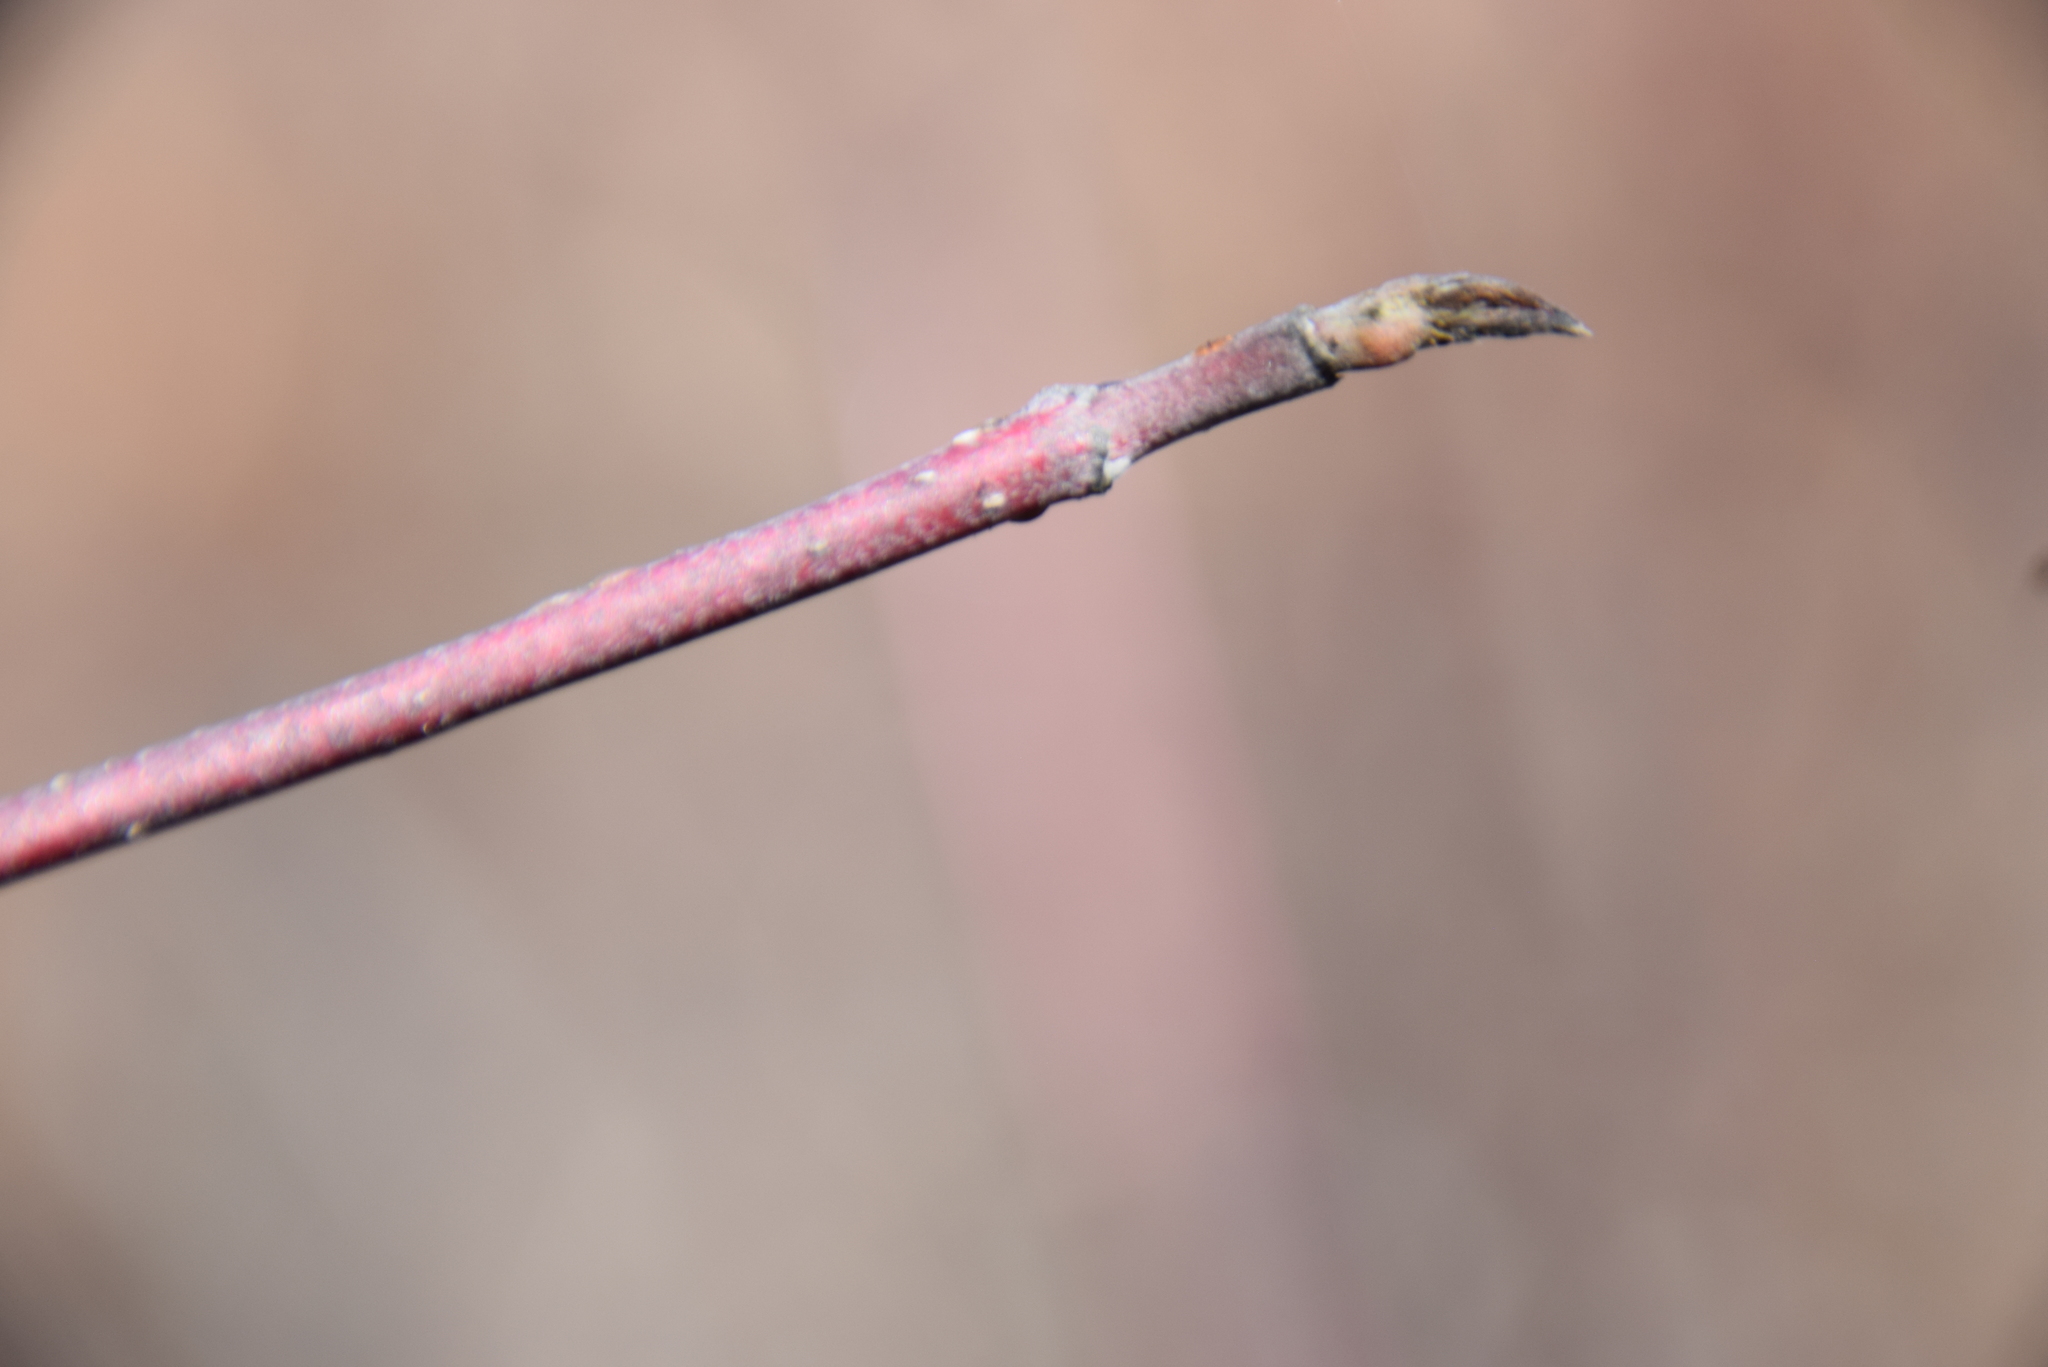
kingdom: Plantae
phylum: Tracheophyta
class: Magnoliopsida
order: Cornales
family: Cornaceae
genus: Cornus
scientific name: Cornus sericea
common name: Red-osier dogwood
